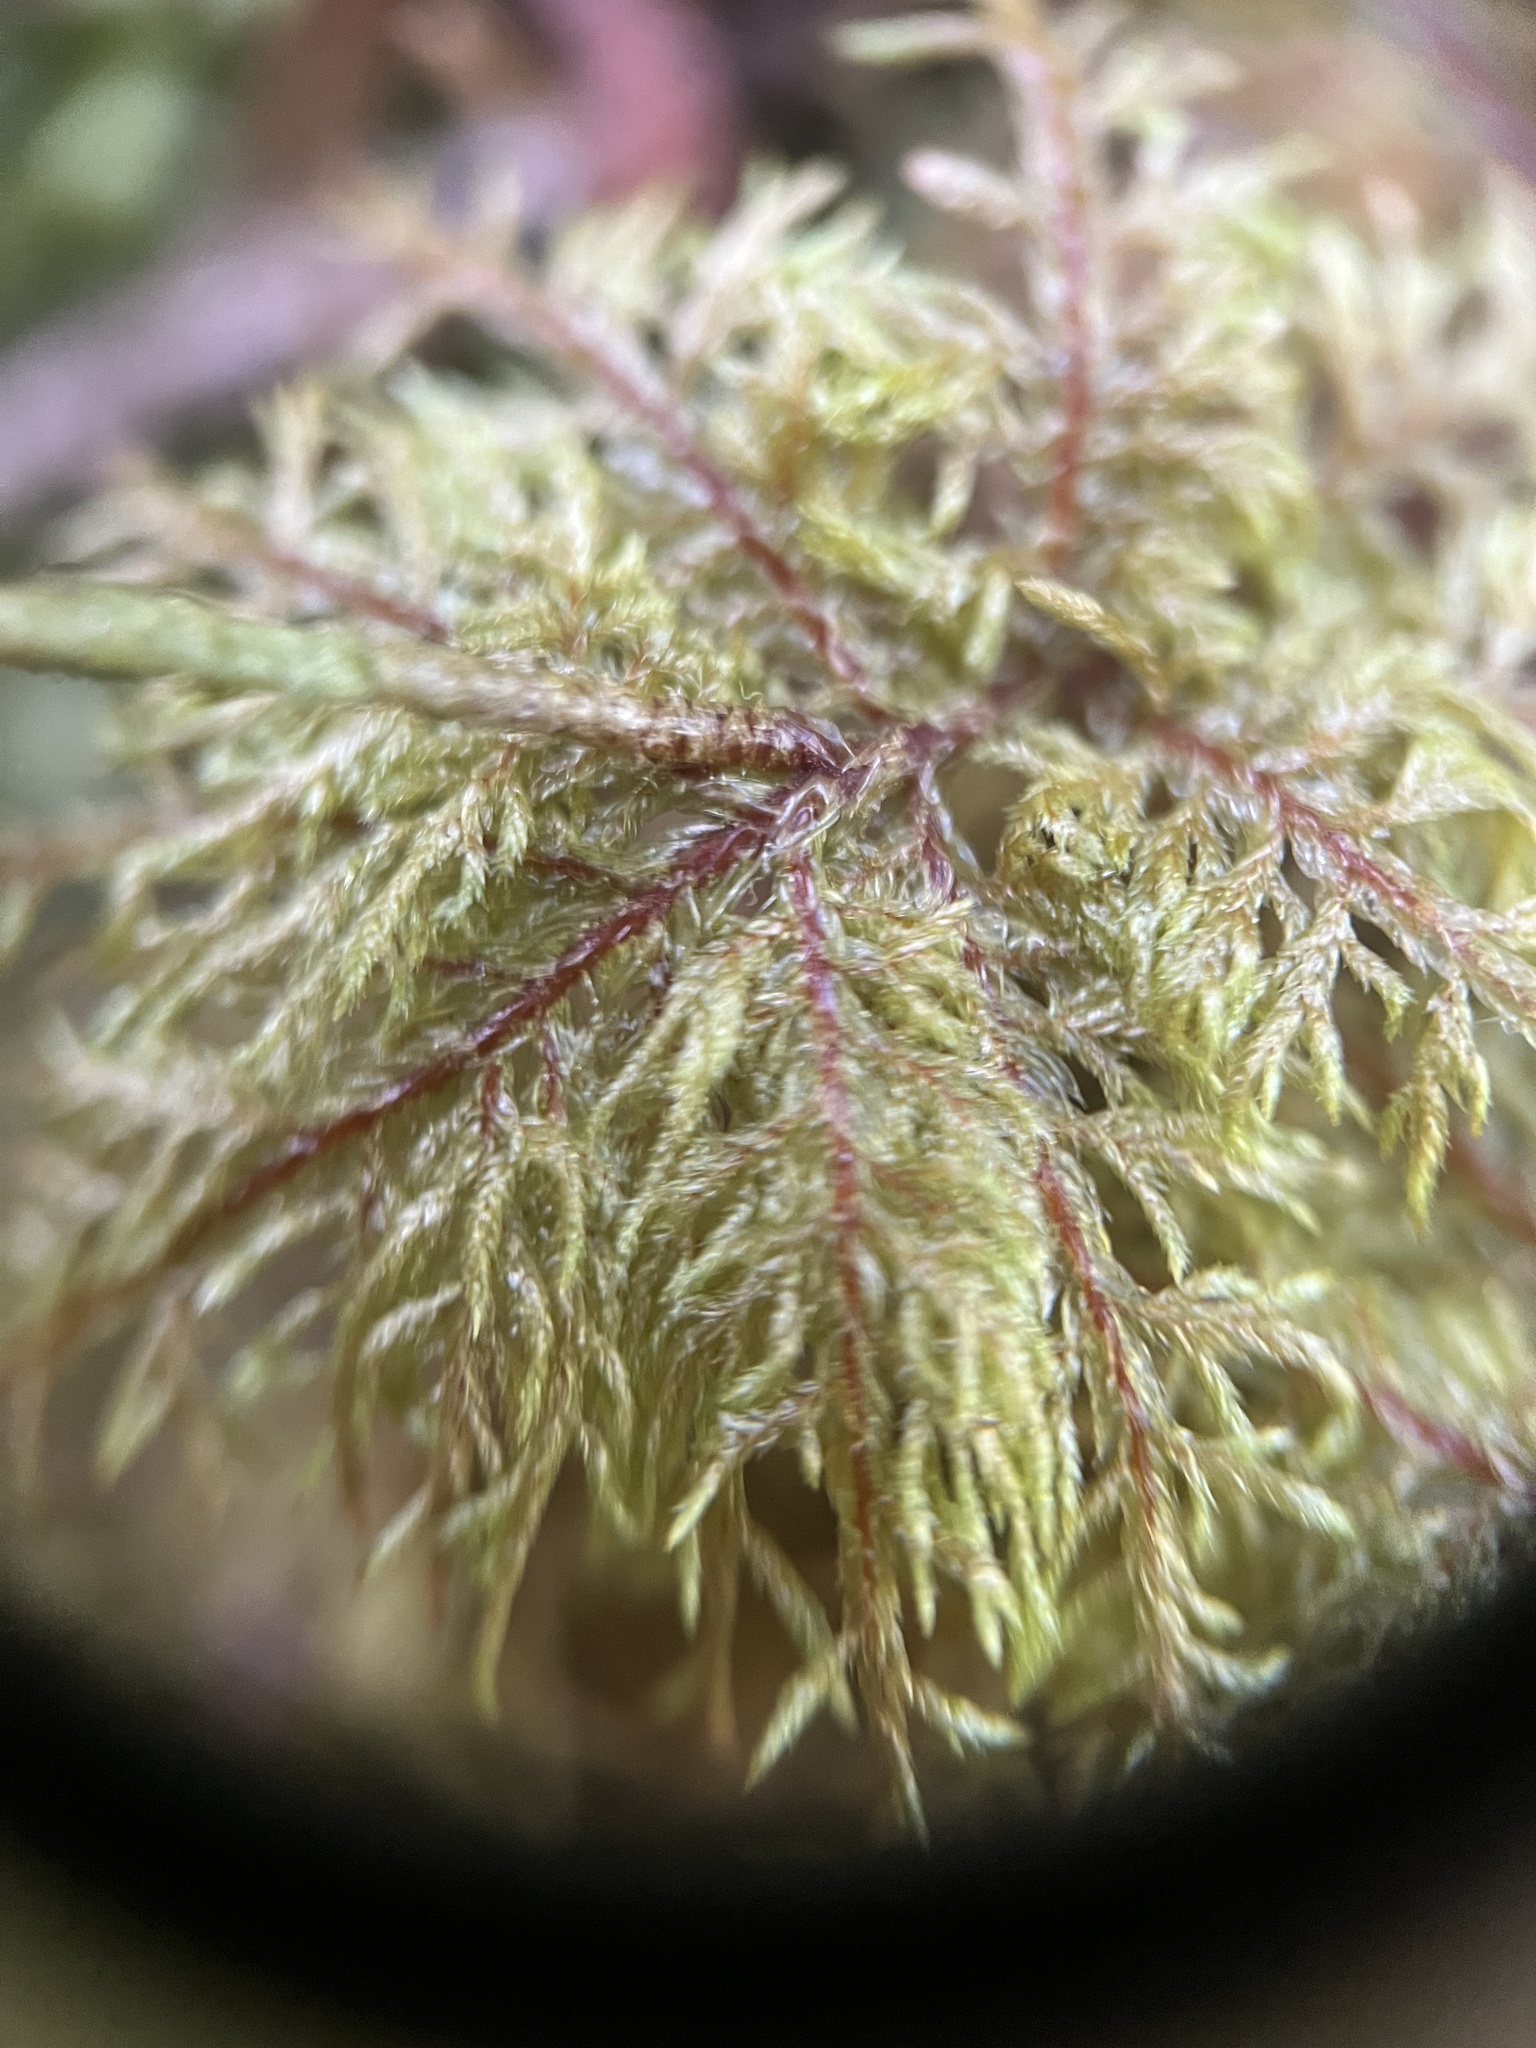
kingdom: Plantae
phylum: Bryophyta
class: Bryopsida
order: Hypnales
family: Hylocomiaceae
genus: Hylocomium
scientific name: Hylocomium splendens
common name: Stairstep moss
